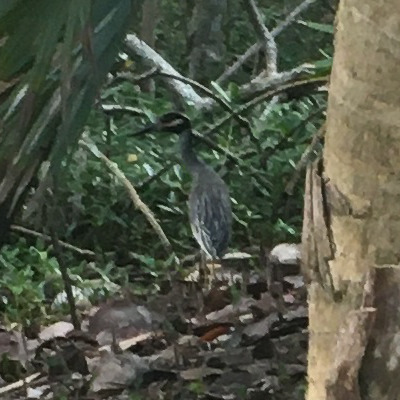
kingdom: Animalia
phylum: Chordata
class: Aves
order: Pelecaniformes
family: Ardeidae
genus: Nyctanassa
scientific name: Nyctanassa violacea
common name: Yellow-crowned night heron
